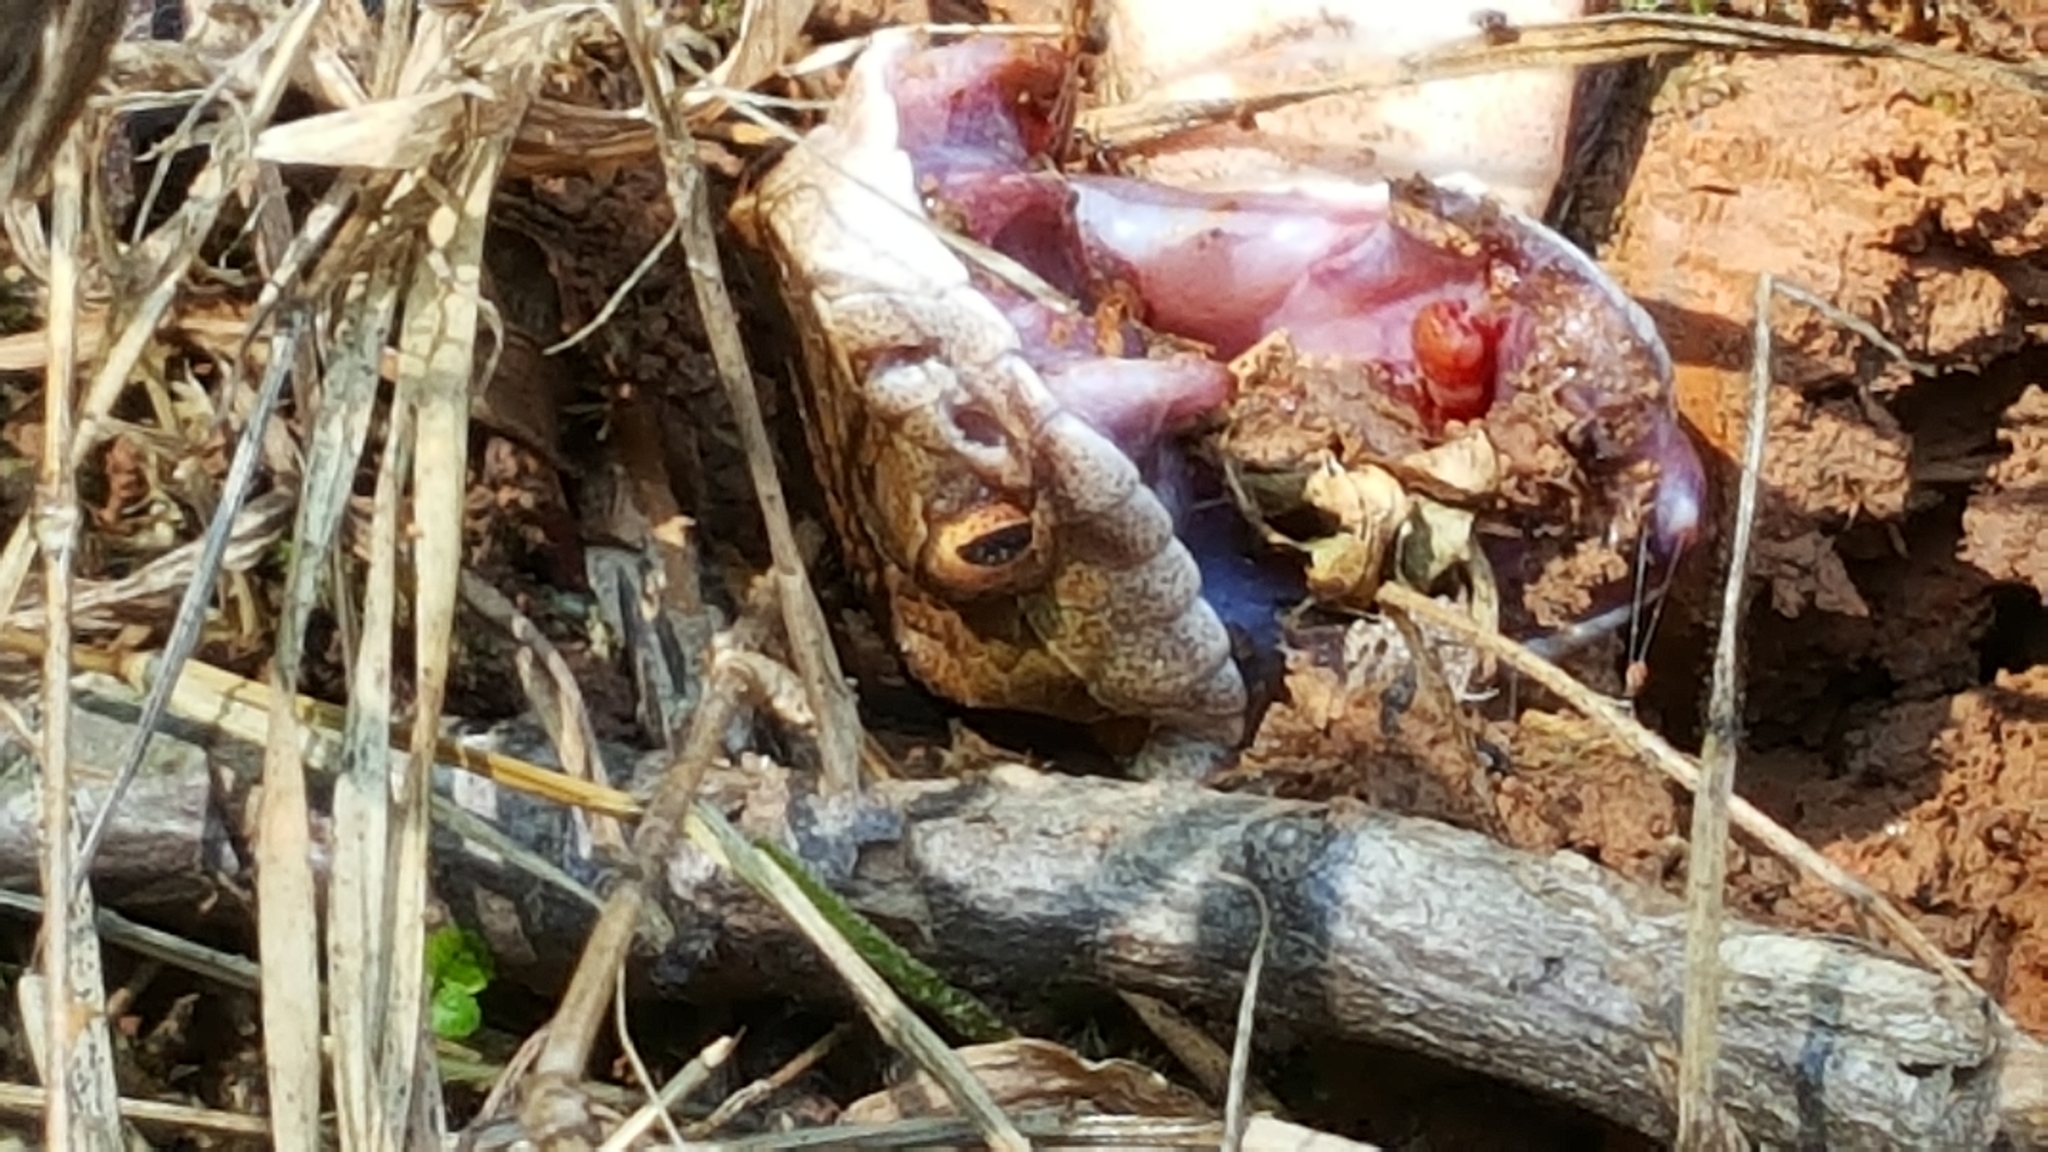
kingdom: Animalia
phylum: Chordata
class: Squamata
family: Viperidae
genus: Agkistrodon
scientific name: Agkistrodon contortrix
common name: Northern copperhead
